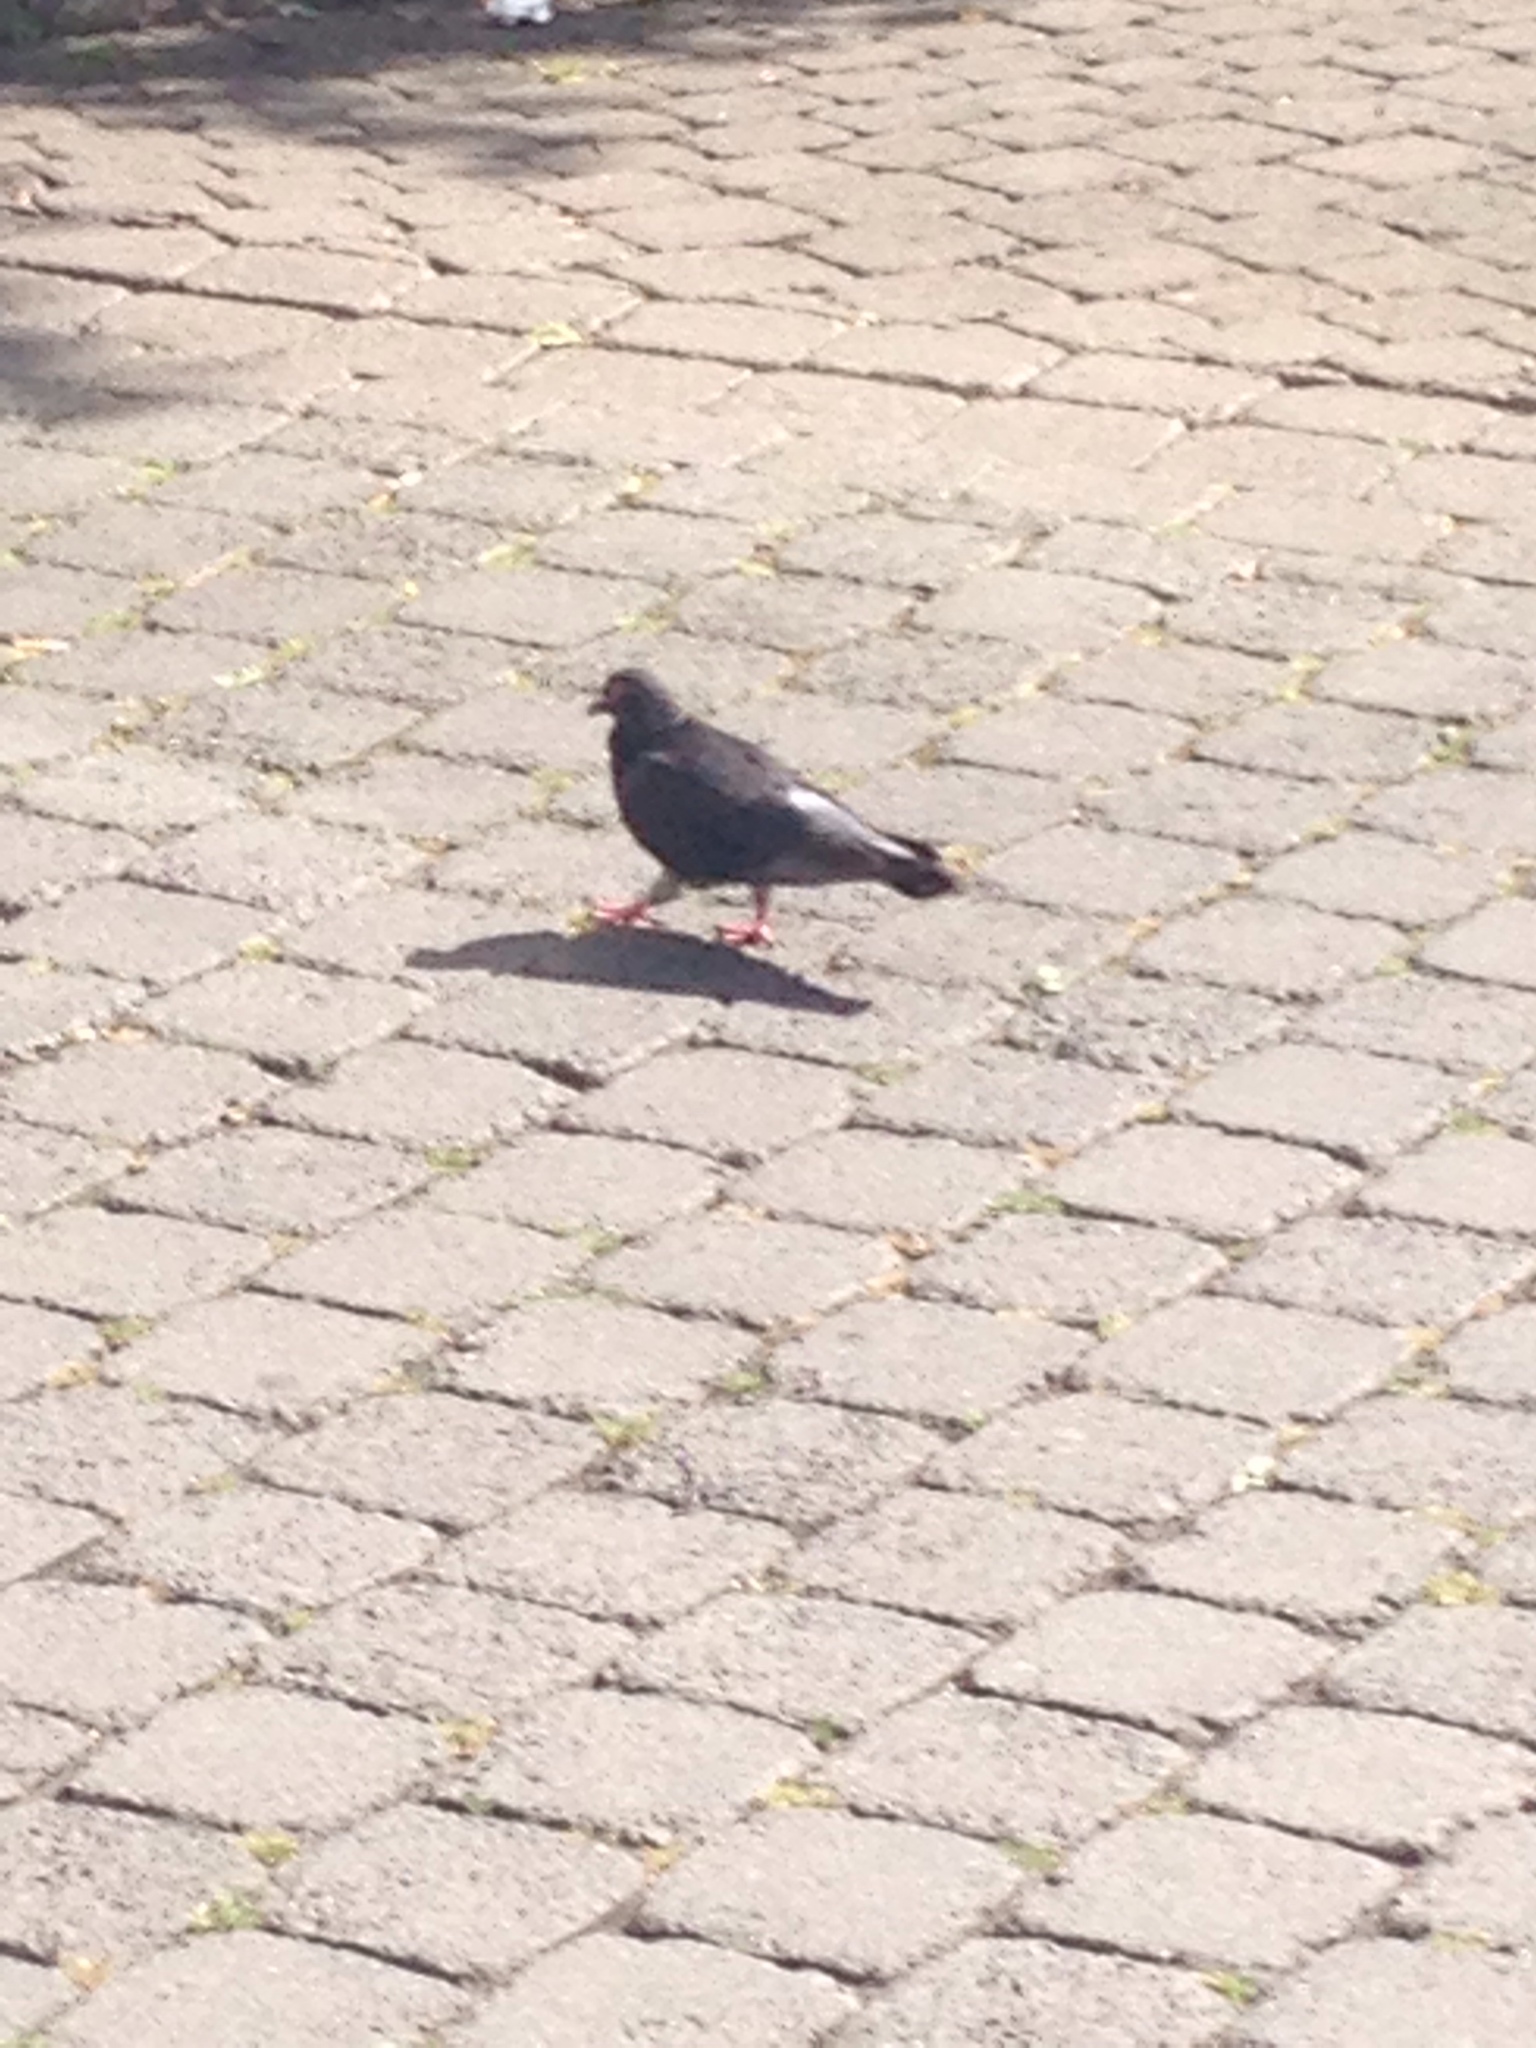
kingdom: Animalia
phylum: Chordata
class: Aves
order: Columbiformes
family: Columbidae
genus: Columba
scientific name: Columba livia
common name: Rock pigeon
